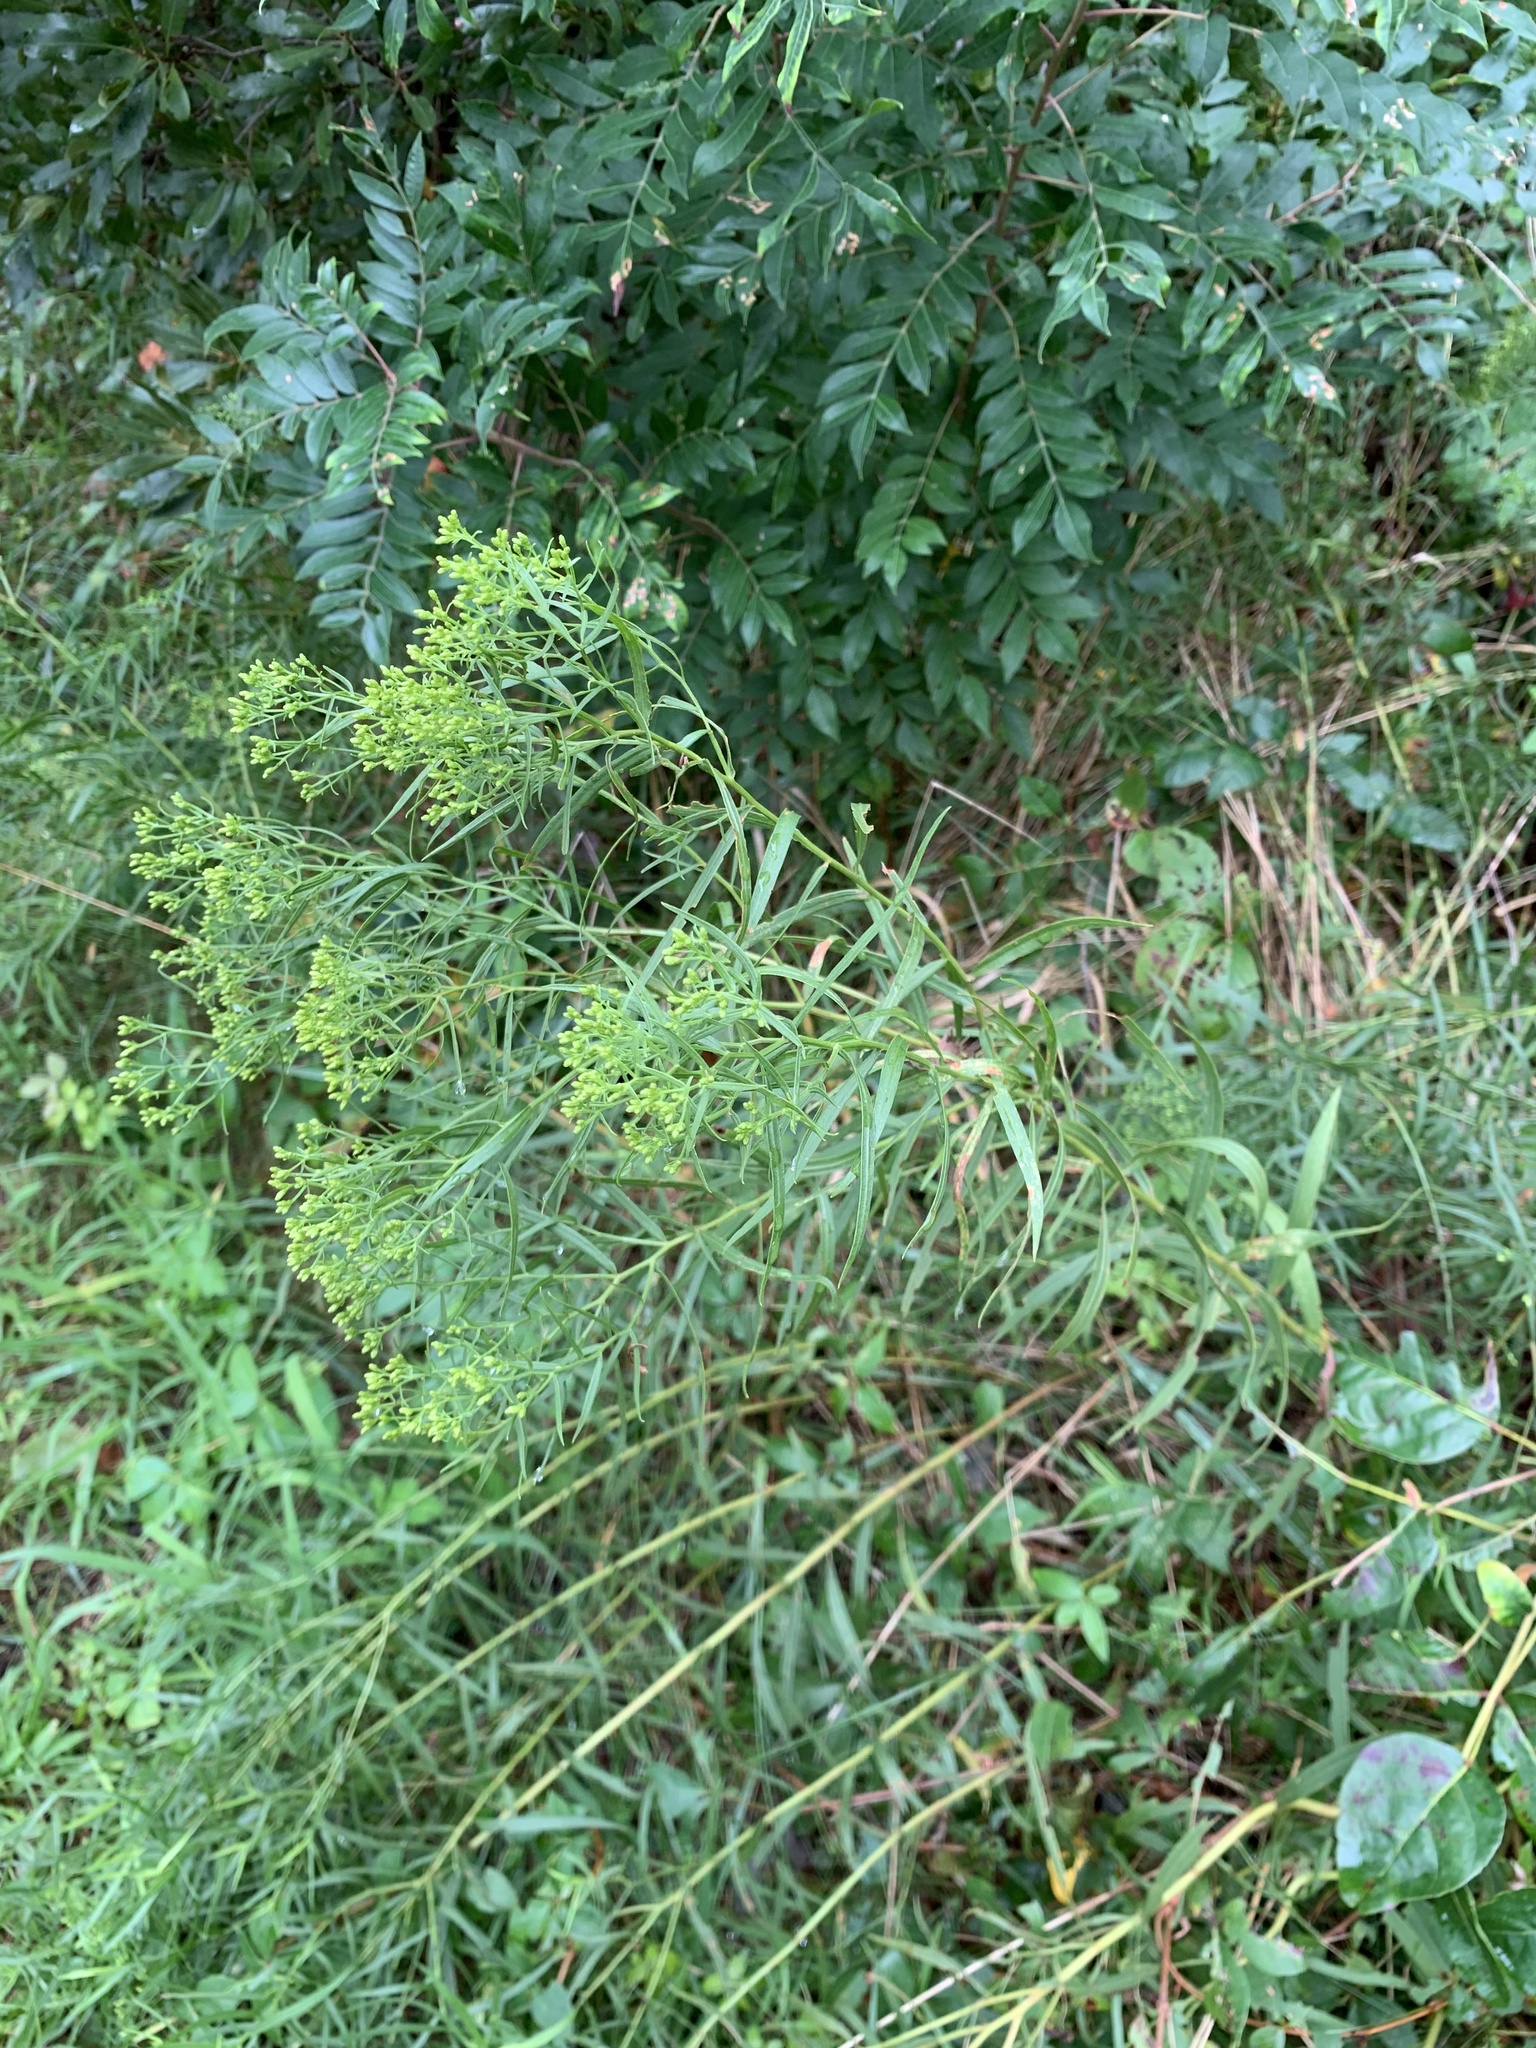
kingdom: Plantae
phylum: Tracheophyta
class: Magnoliopsida
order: Asterales
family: Asteraceae
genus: Euthamia
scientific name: Euthamia graminifolia
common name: Common goldentop
